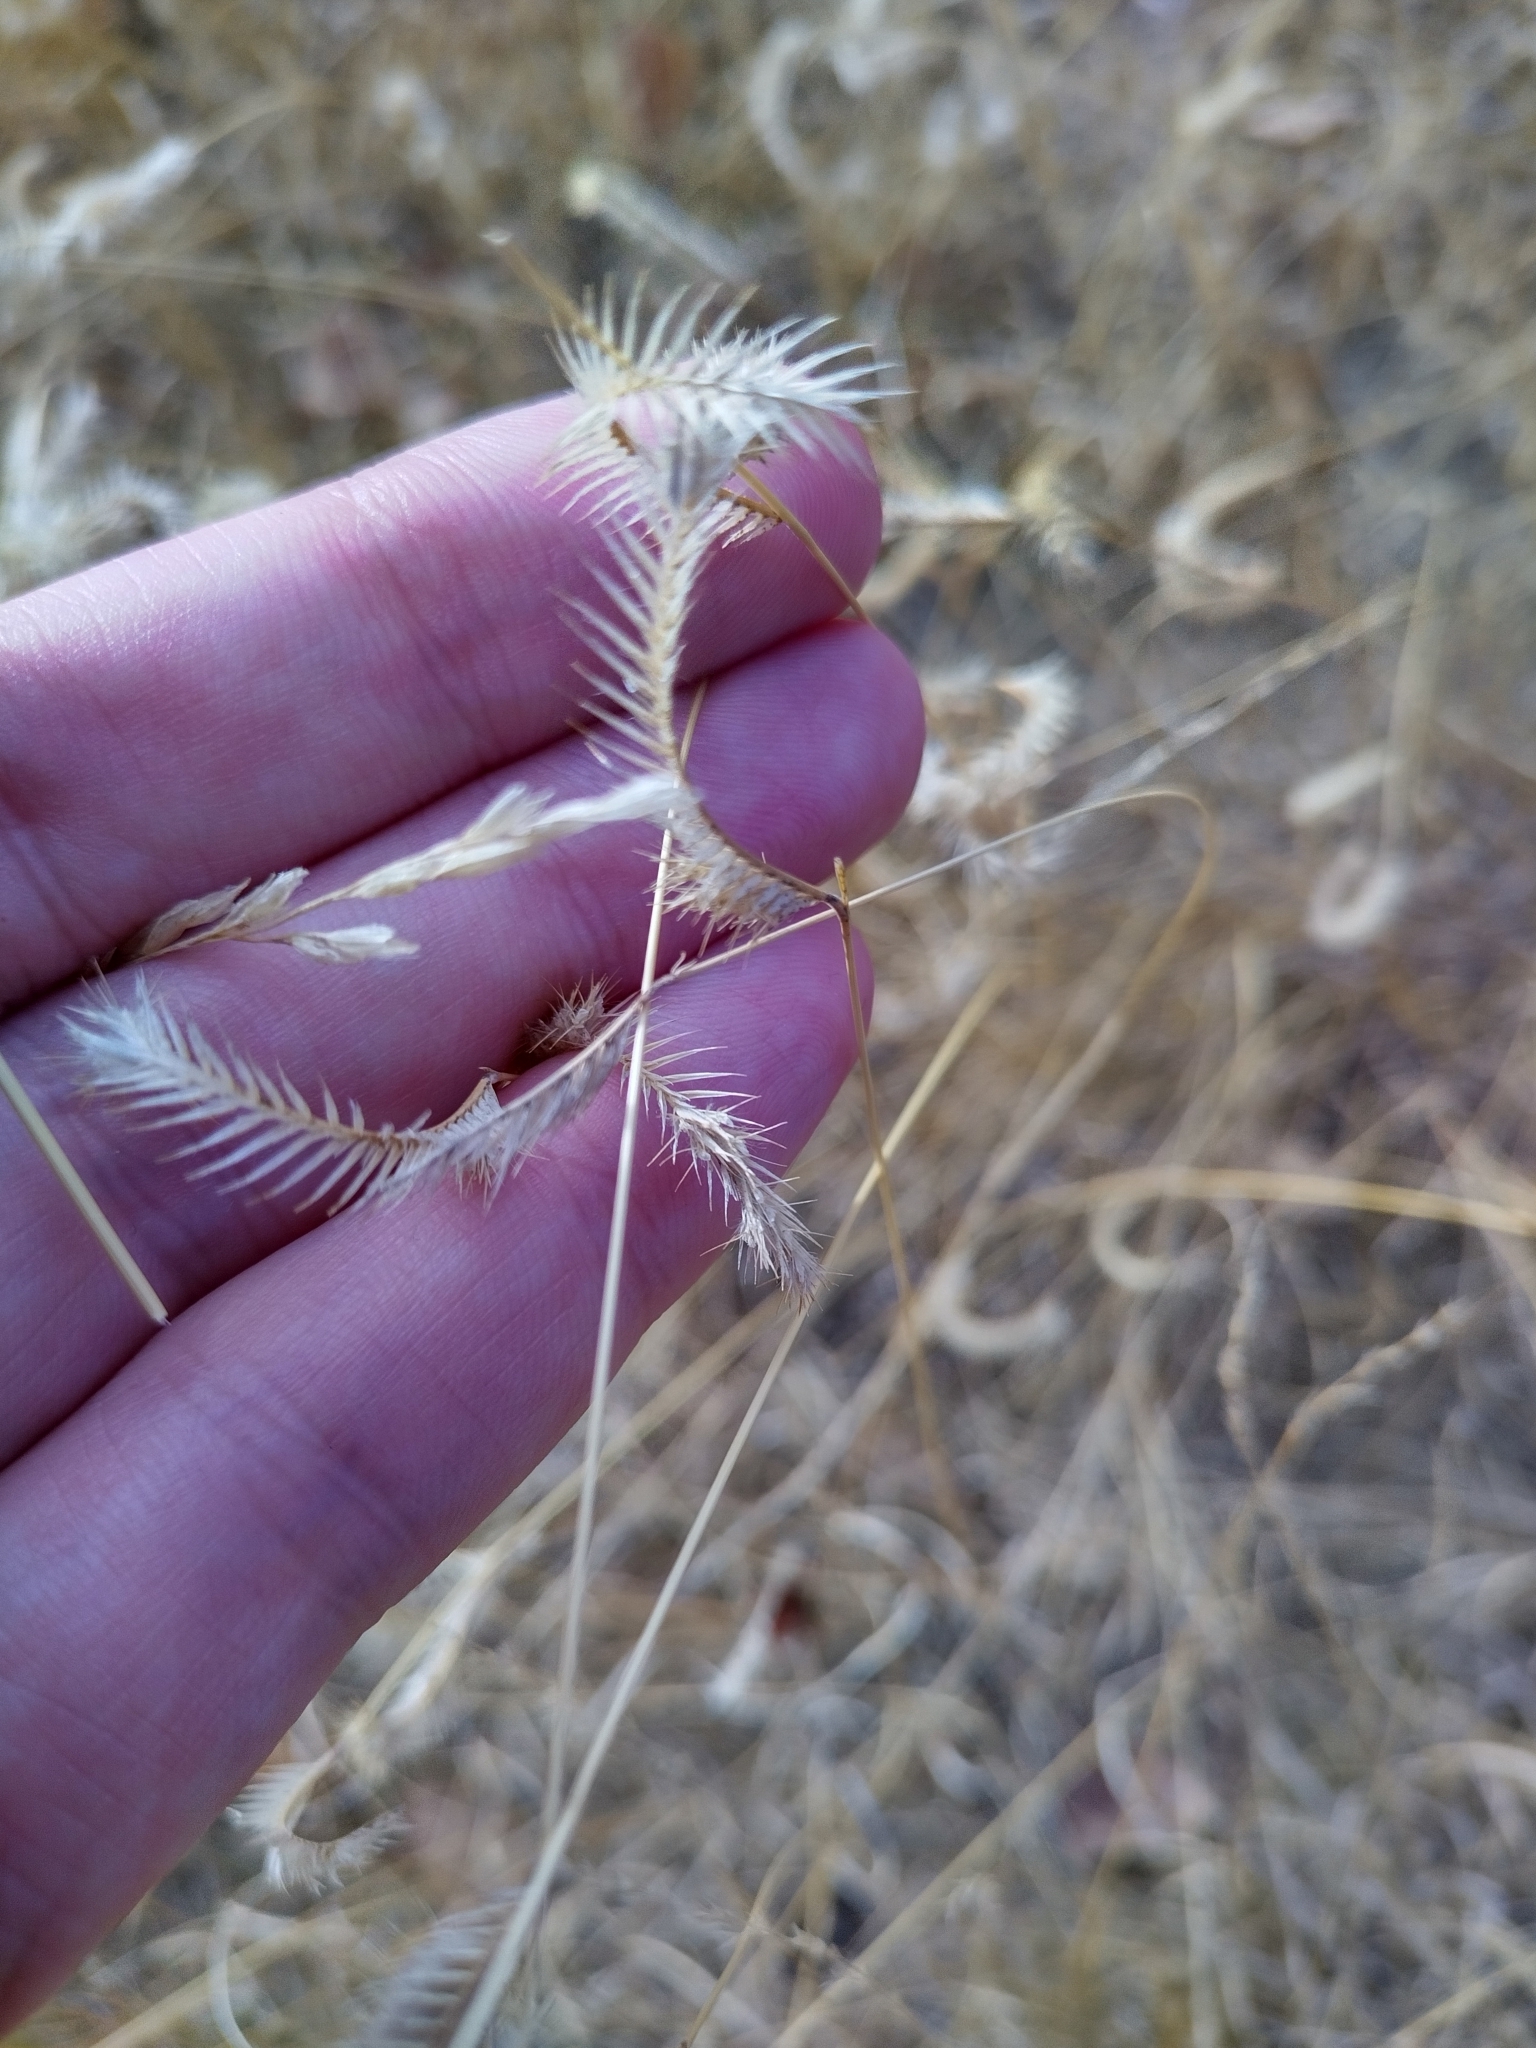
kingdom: Plantae
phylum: Tracheophyta
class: Liliopsida
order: Poales
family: Poaceae
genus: Bouteloua
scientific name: Bouteloua gracilis
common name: Blue grama
